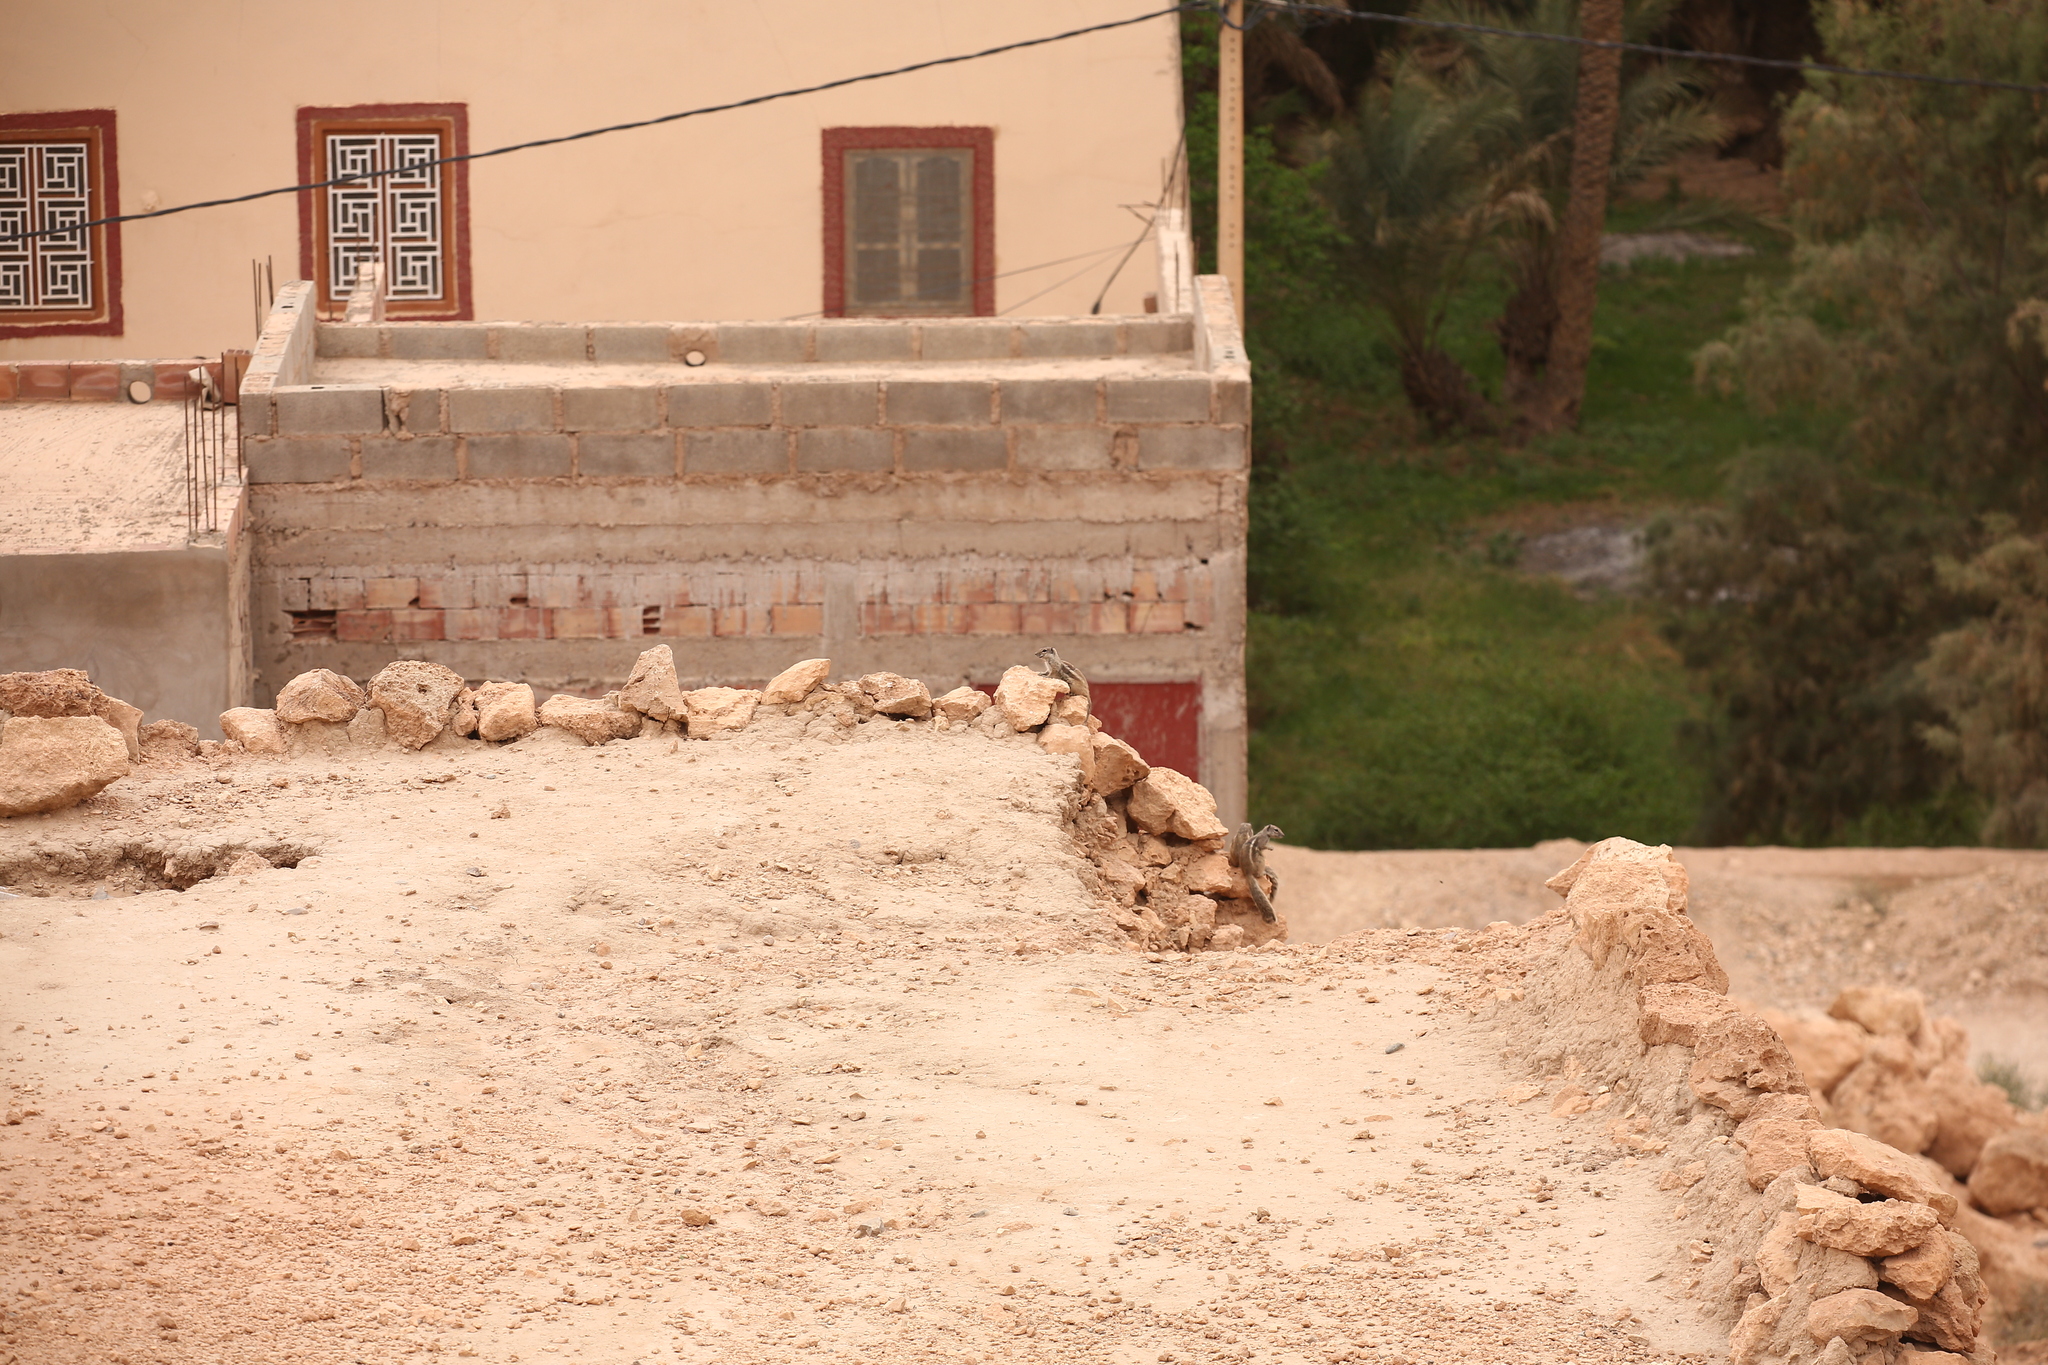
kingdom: Animalia
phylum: Chordata
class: Mammalia
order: Rodentia
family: Sciuridae
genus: Atlantoxerus
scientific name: Atlantoxerus getulus
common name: Barbary ground squirrel
